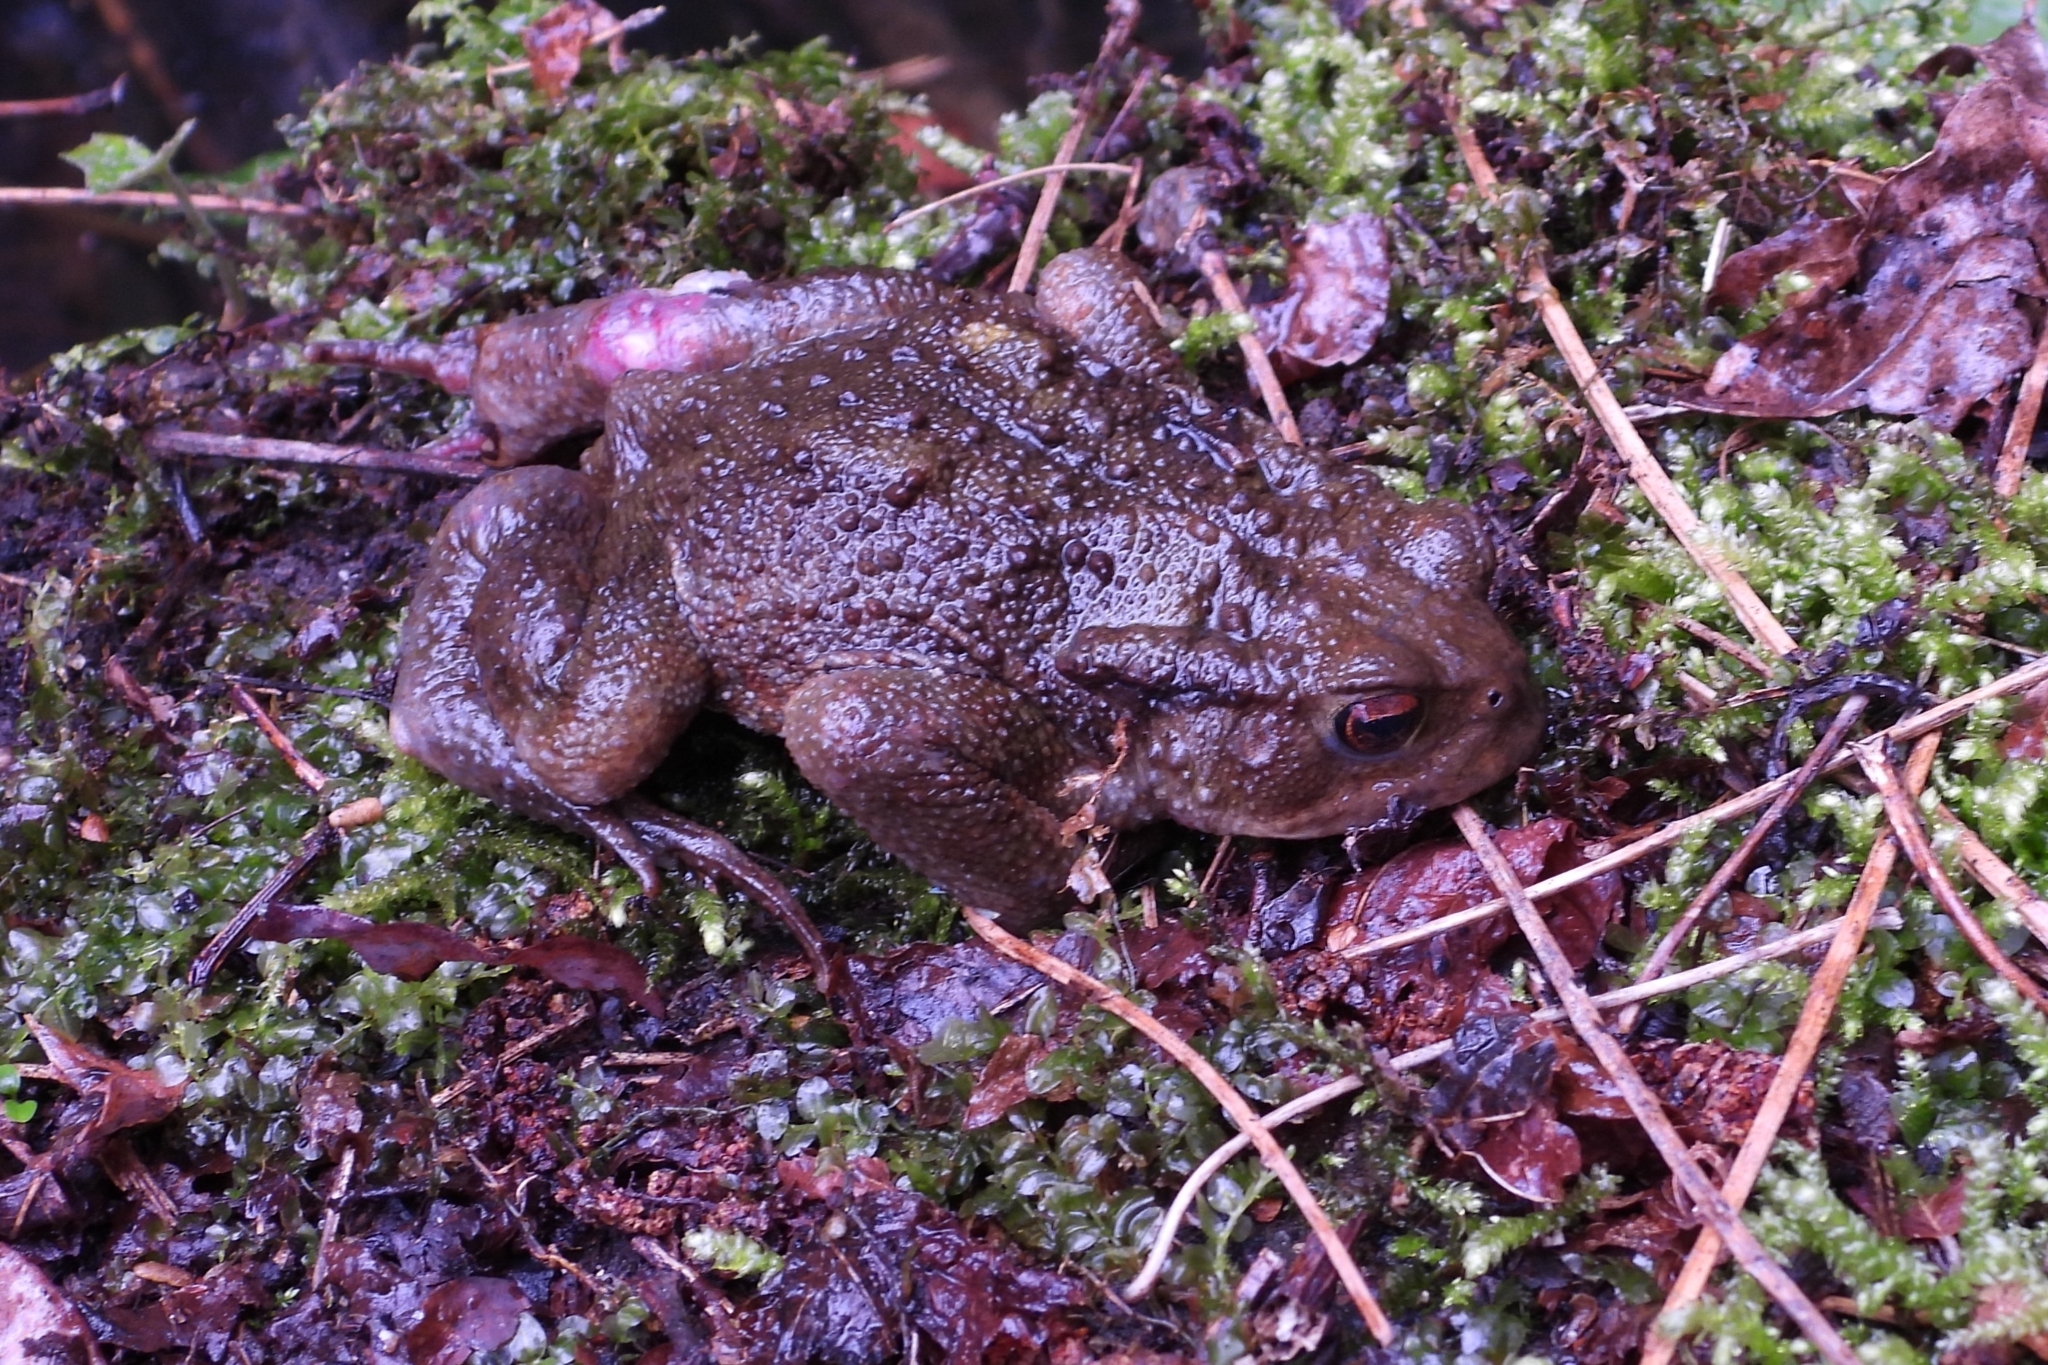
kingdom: Animalia
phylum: Chordata
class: Amphibia
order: Anura
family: Bufonidae
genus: Bufo
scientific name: Bufo bufo
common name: Common toad
